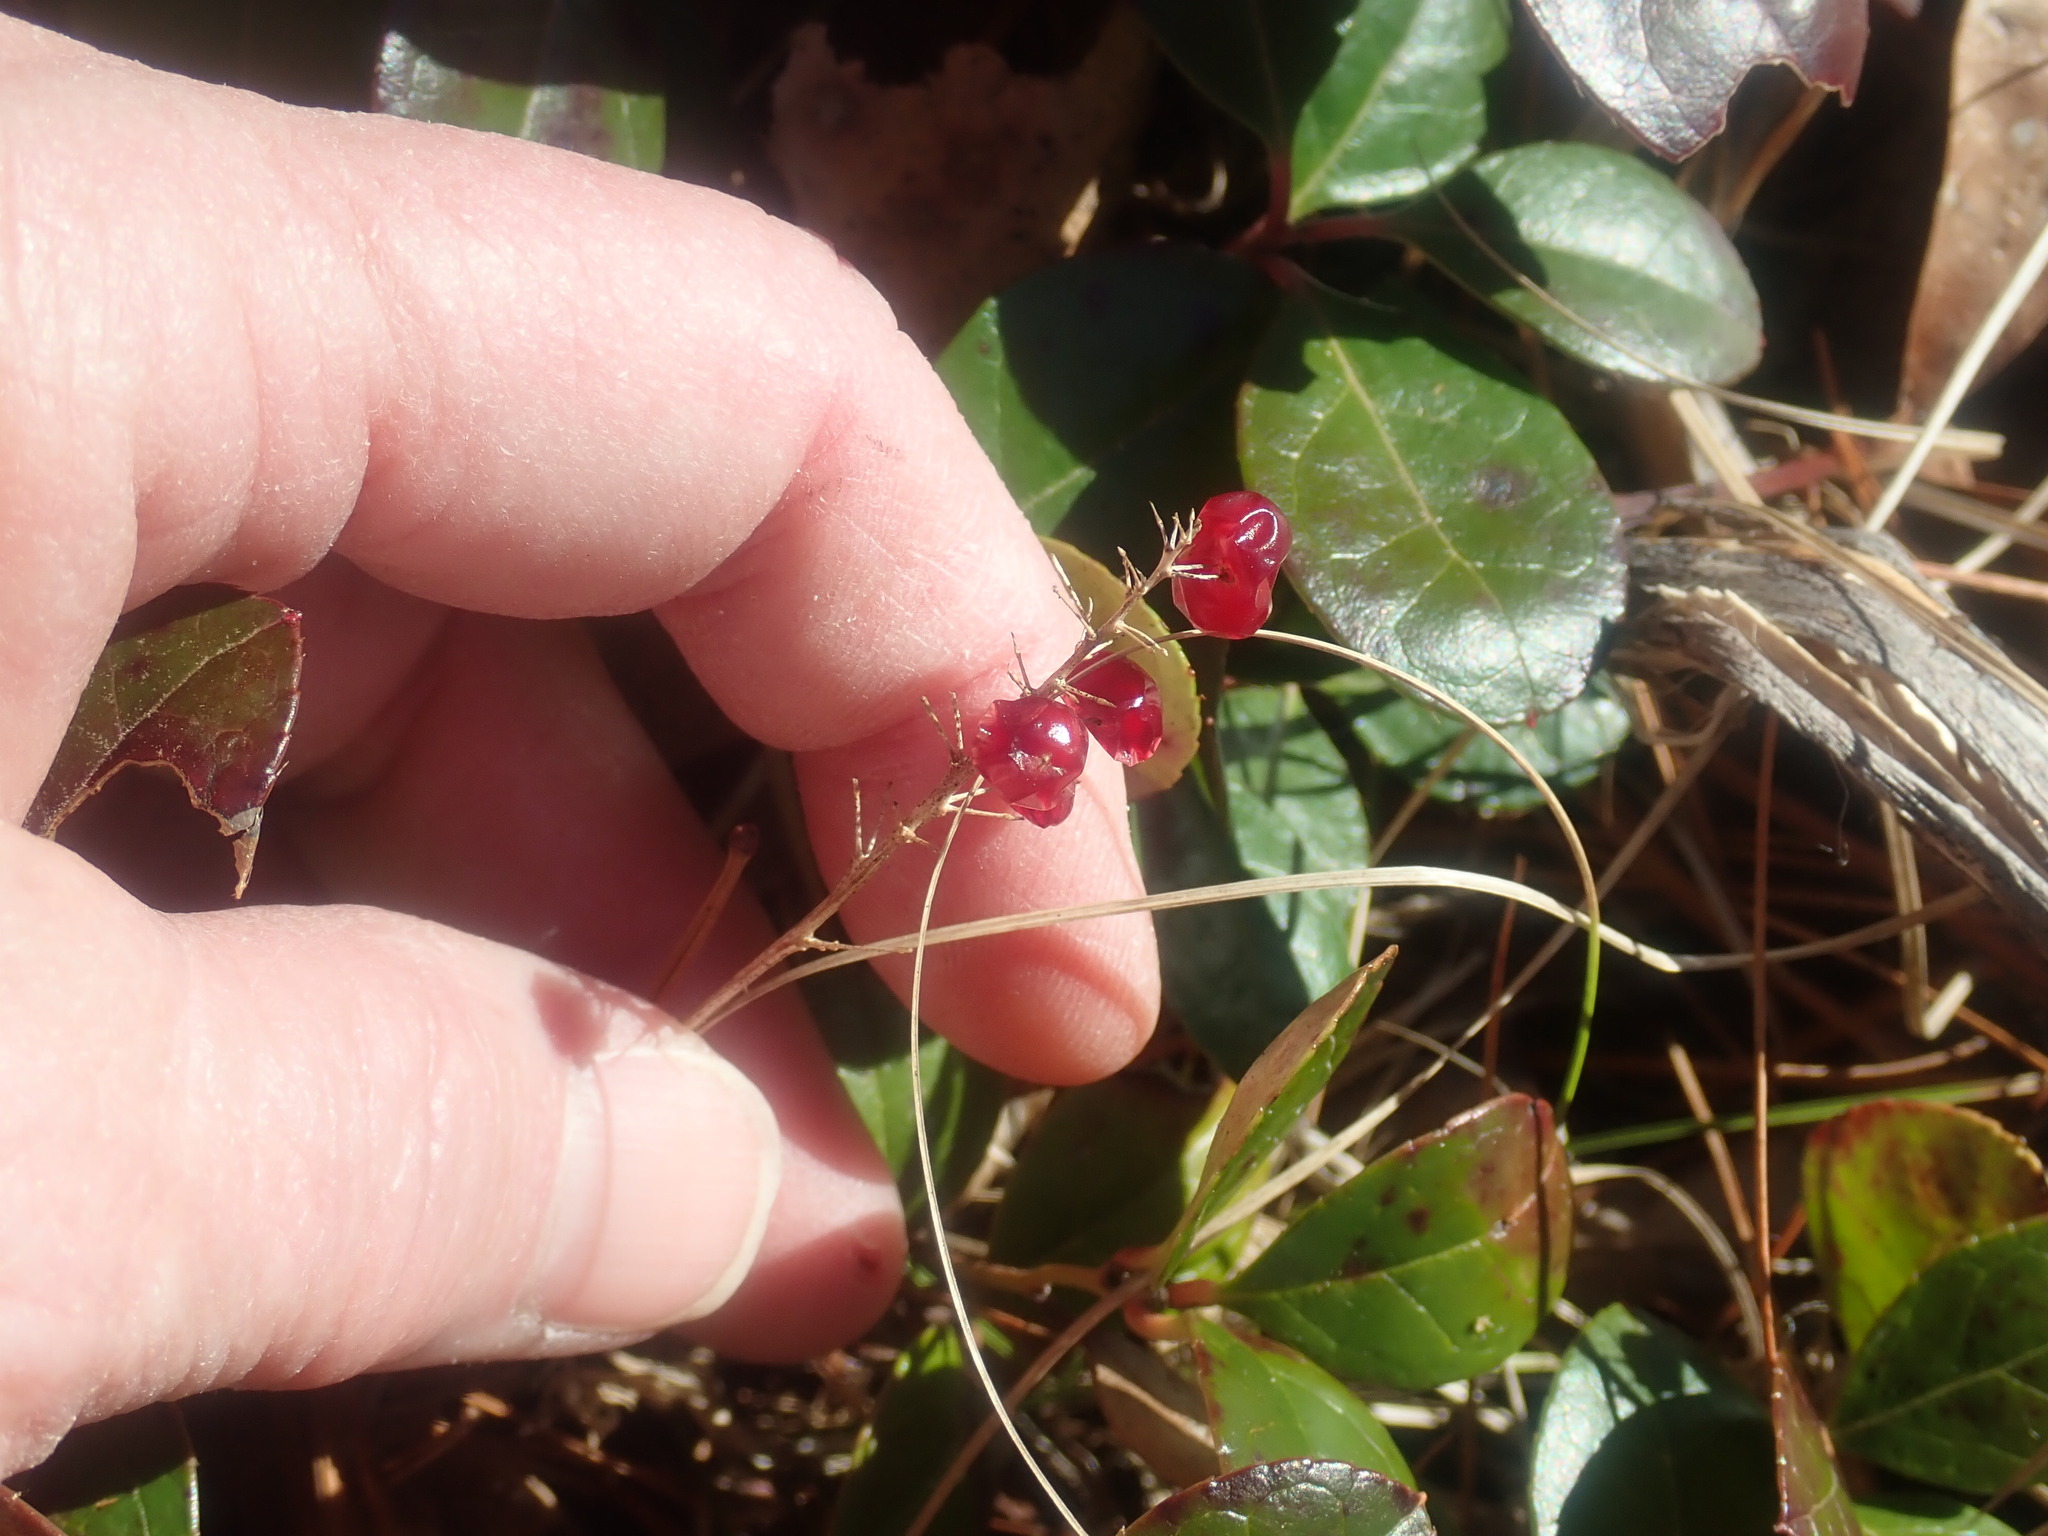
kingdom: Plantae
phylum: Tracheophyta
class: Liliopsida
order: Asparagales
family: Asparagaceae
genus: Maianthemum
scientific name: Maianthemum canadense
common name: False lily-of-the-valley
